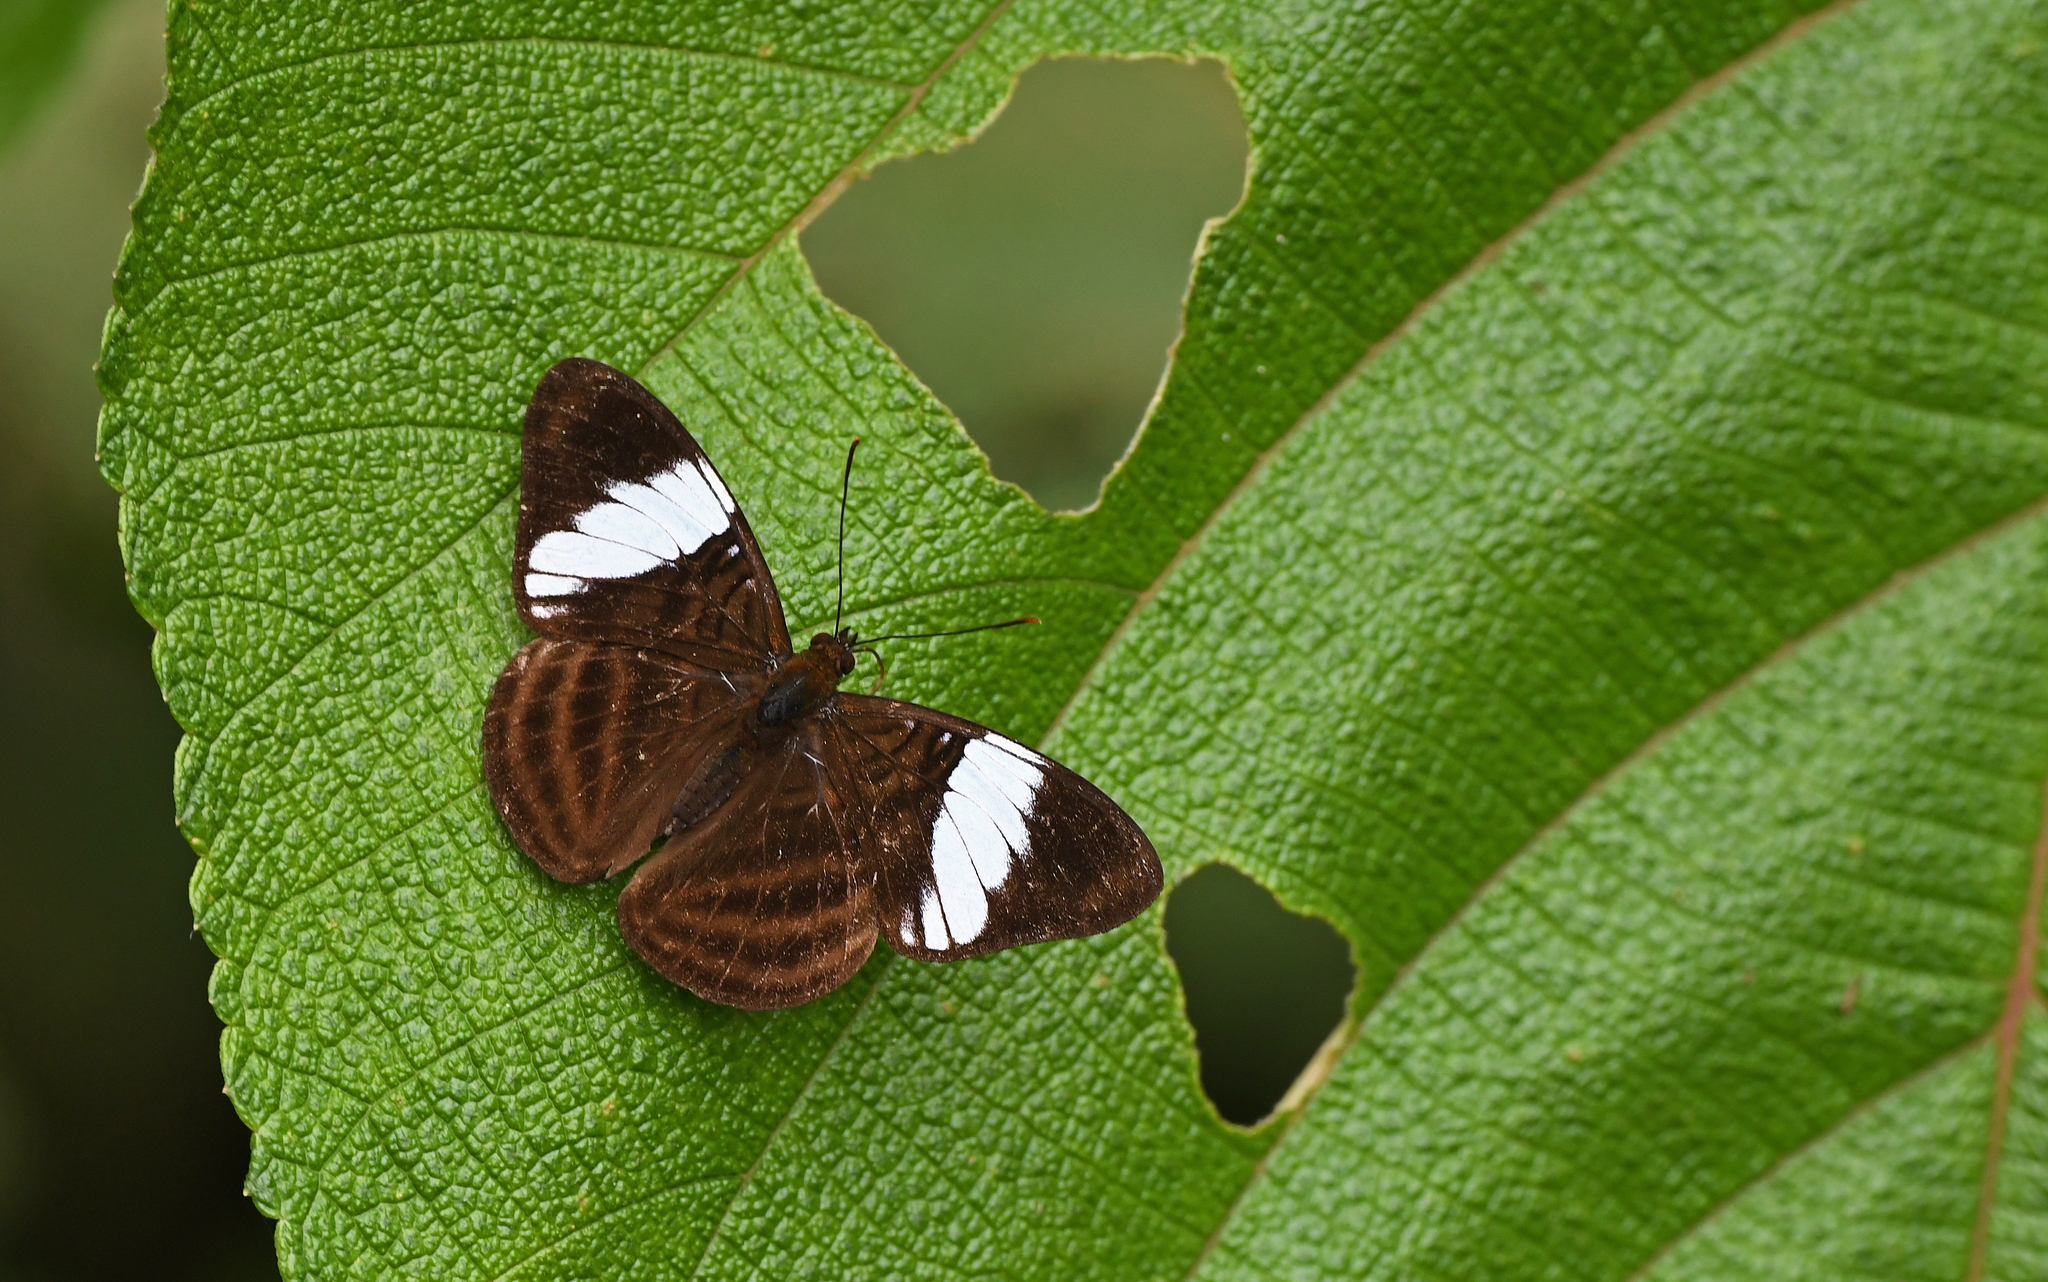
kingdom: Animalia
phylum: Arthropoda
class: Insecta
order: Lepidoptera
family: Nymphalidae
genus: Limenitis
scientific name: Limenitis epione
